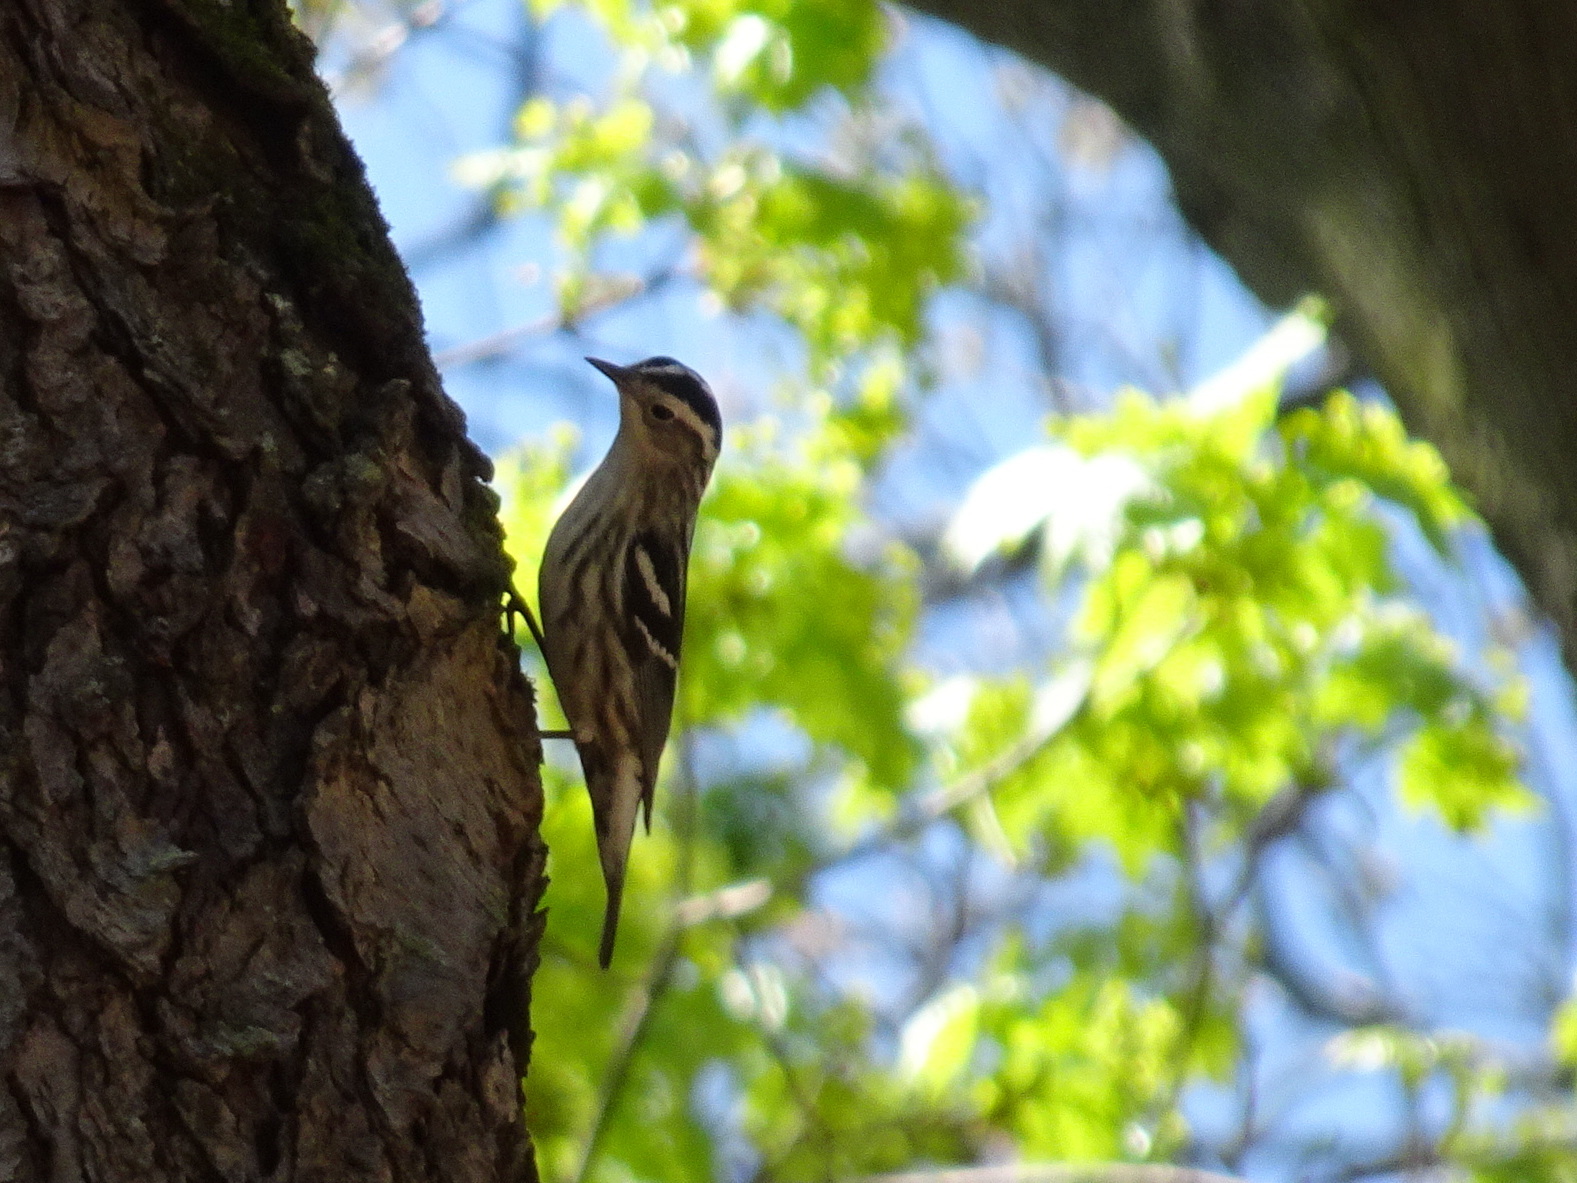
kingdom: Animalia
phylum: Chordata
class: Aves
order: Passeriformes
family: Parulidae
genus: Mniotilta
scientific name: Mniotilta varia
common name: Black-and-white warbler
